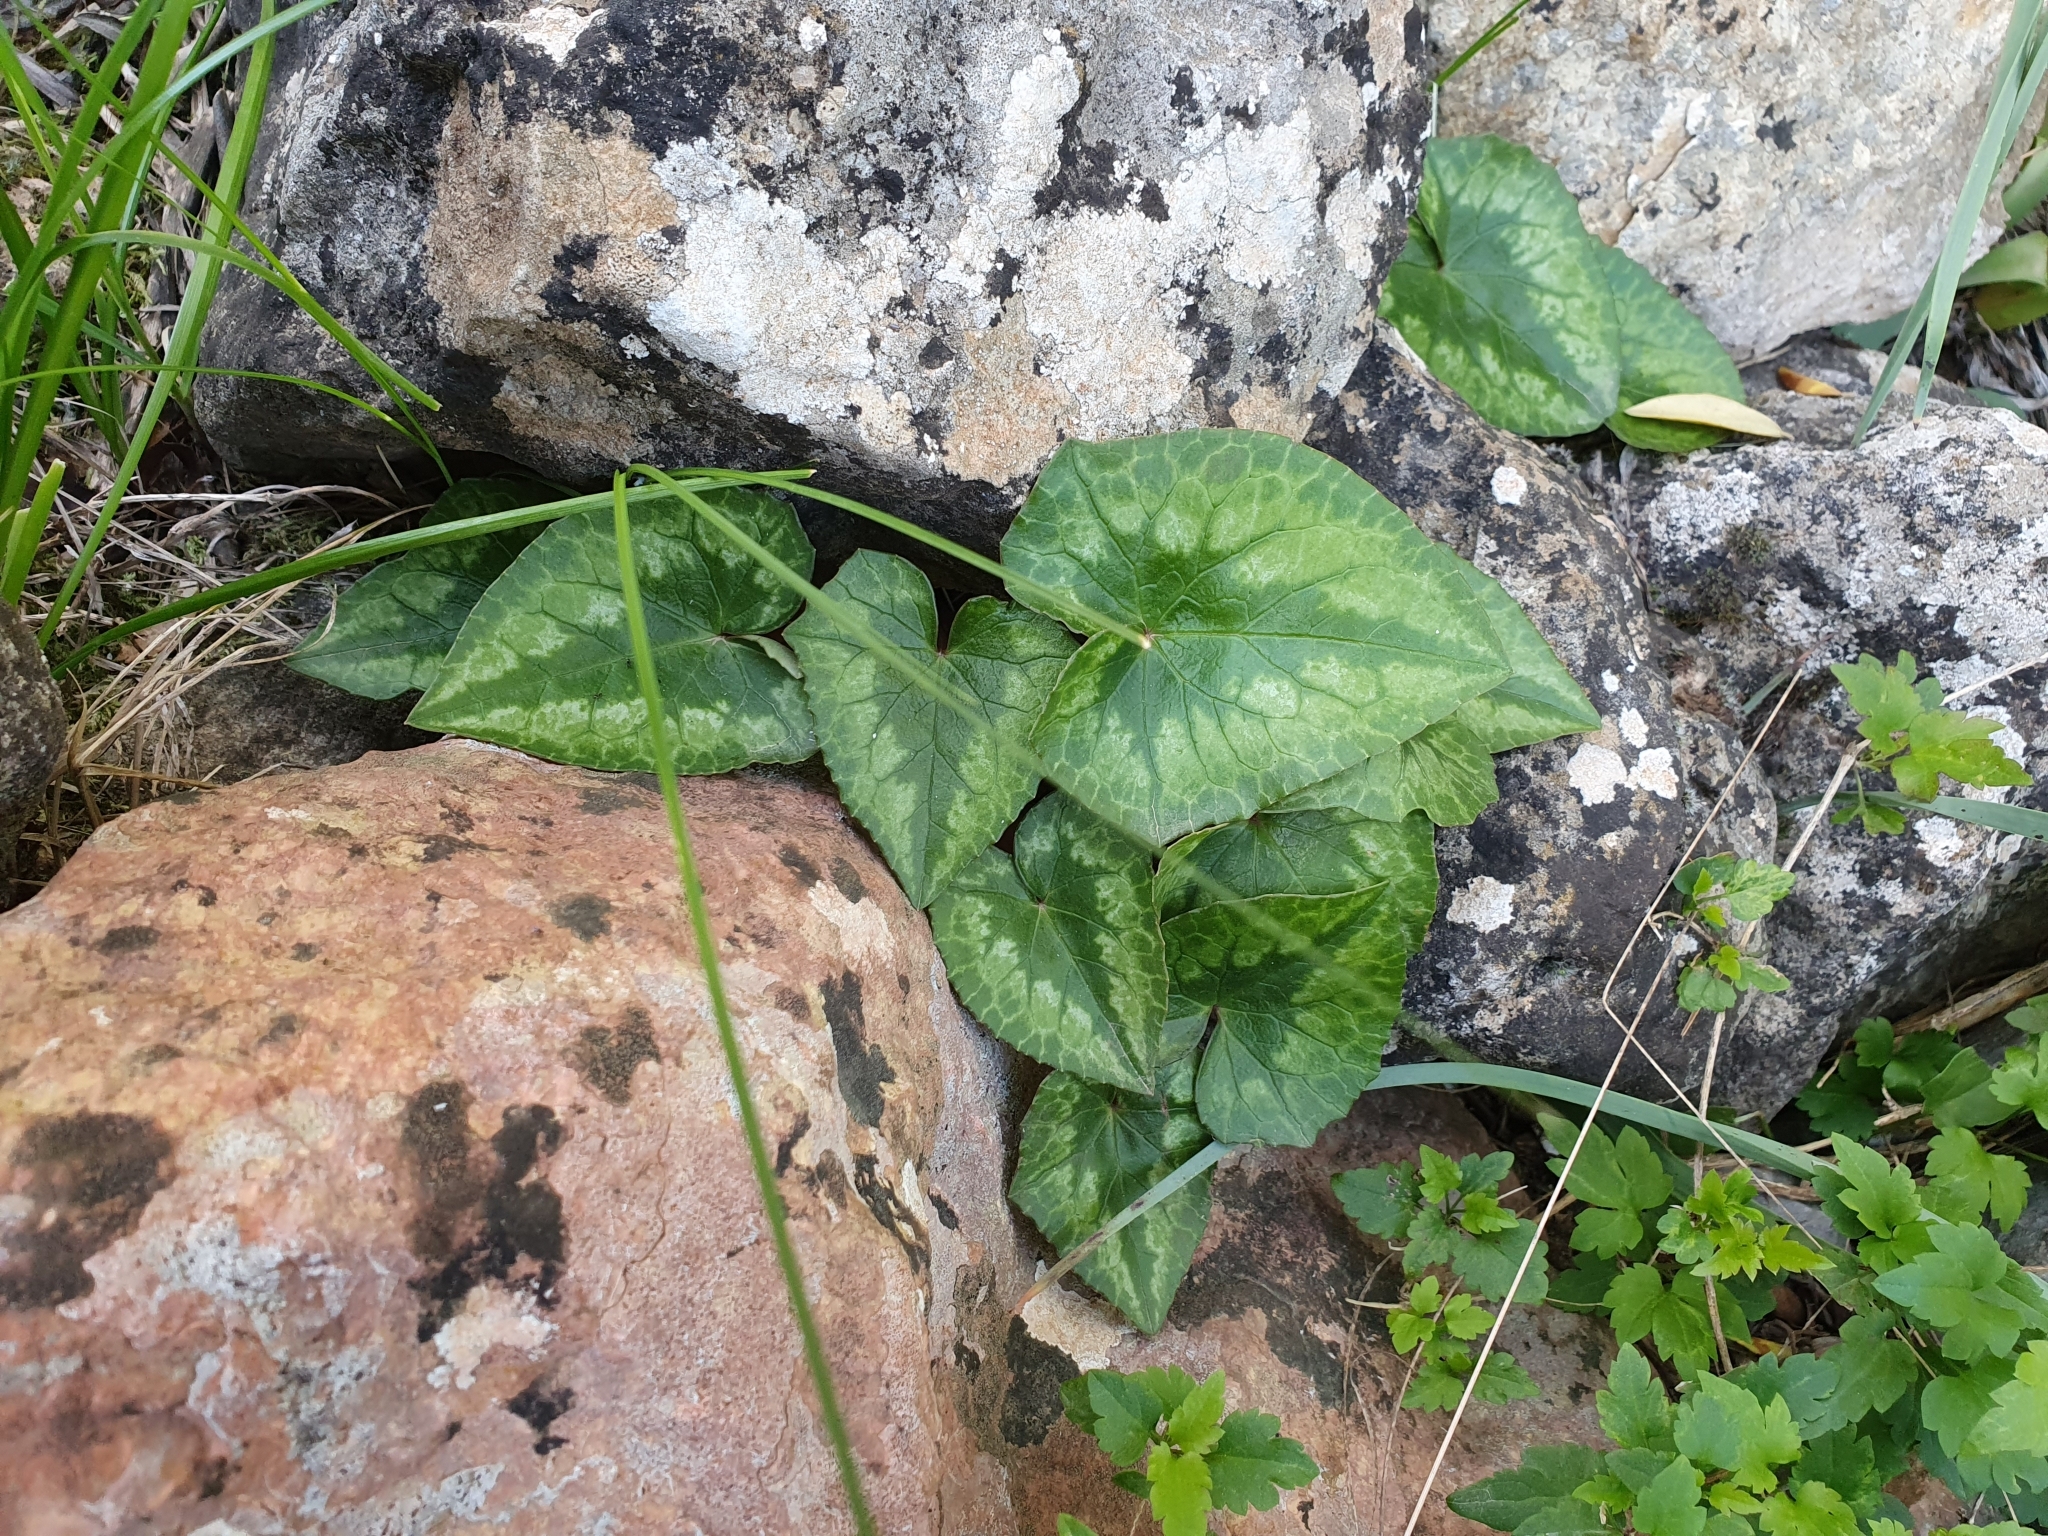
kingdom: Plantae
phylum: Tracheophyta
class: Magnoliopsida
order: Ericales
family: Primulaceae
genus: Cyclamen
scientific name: Cyclamen africanum
